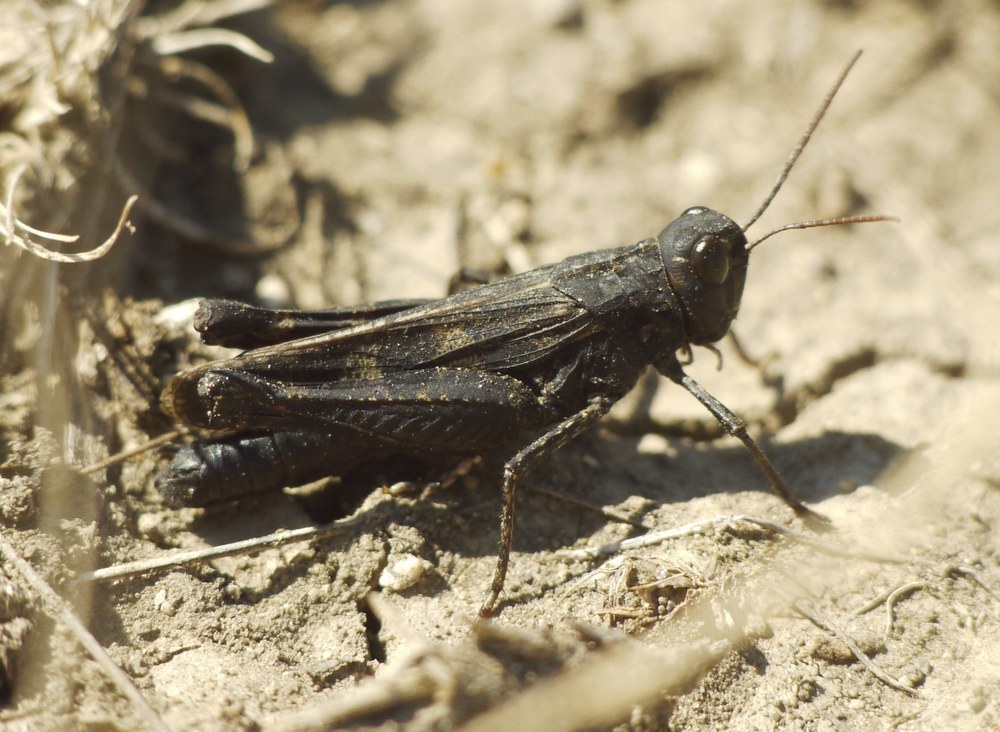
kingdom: Animalia
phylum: Arthropoda
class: Insecta
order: Orthoptera
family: Acrididae
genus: Celes
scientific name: Celes variabilis
